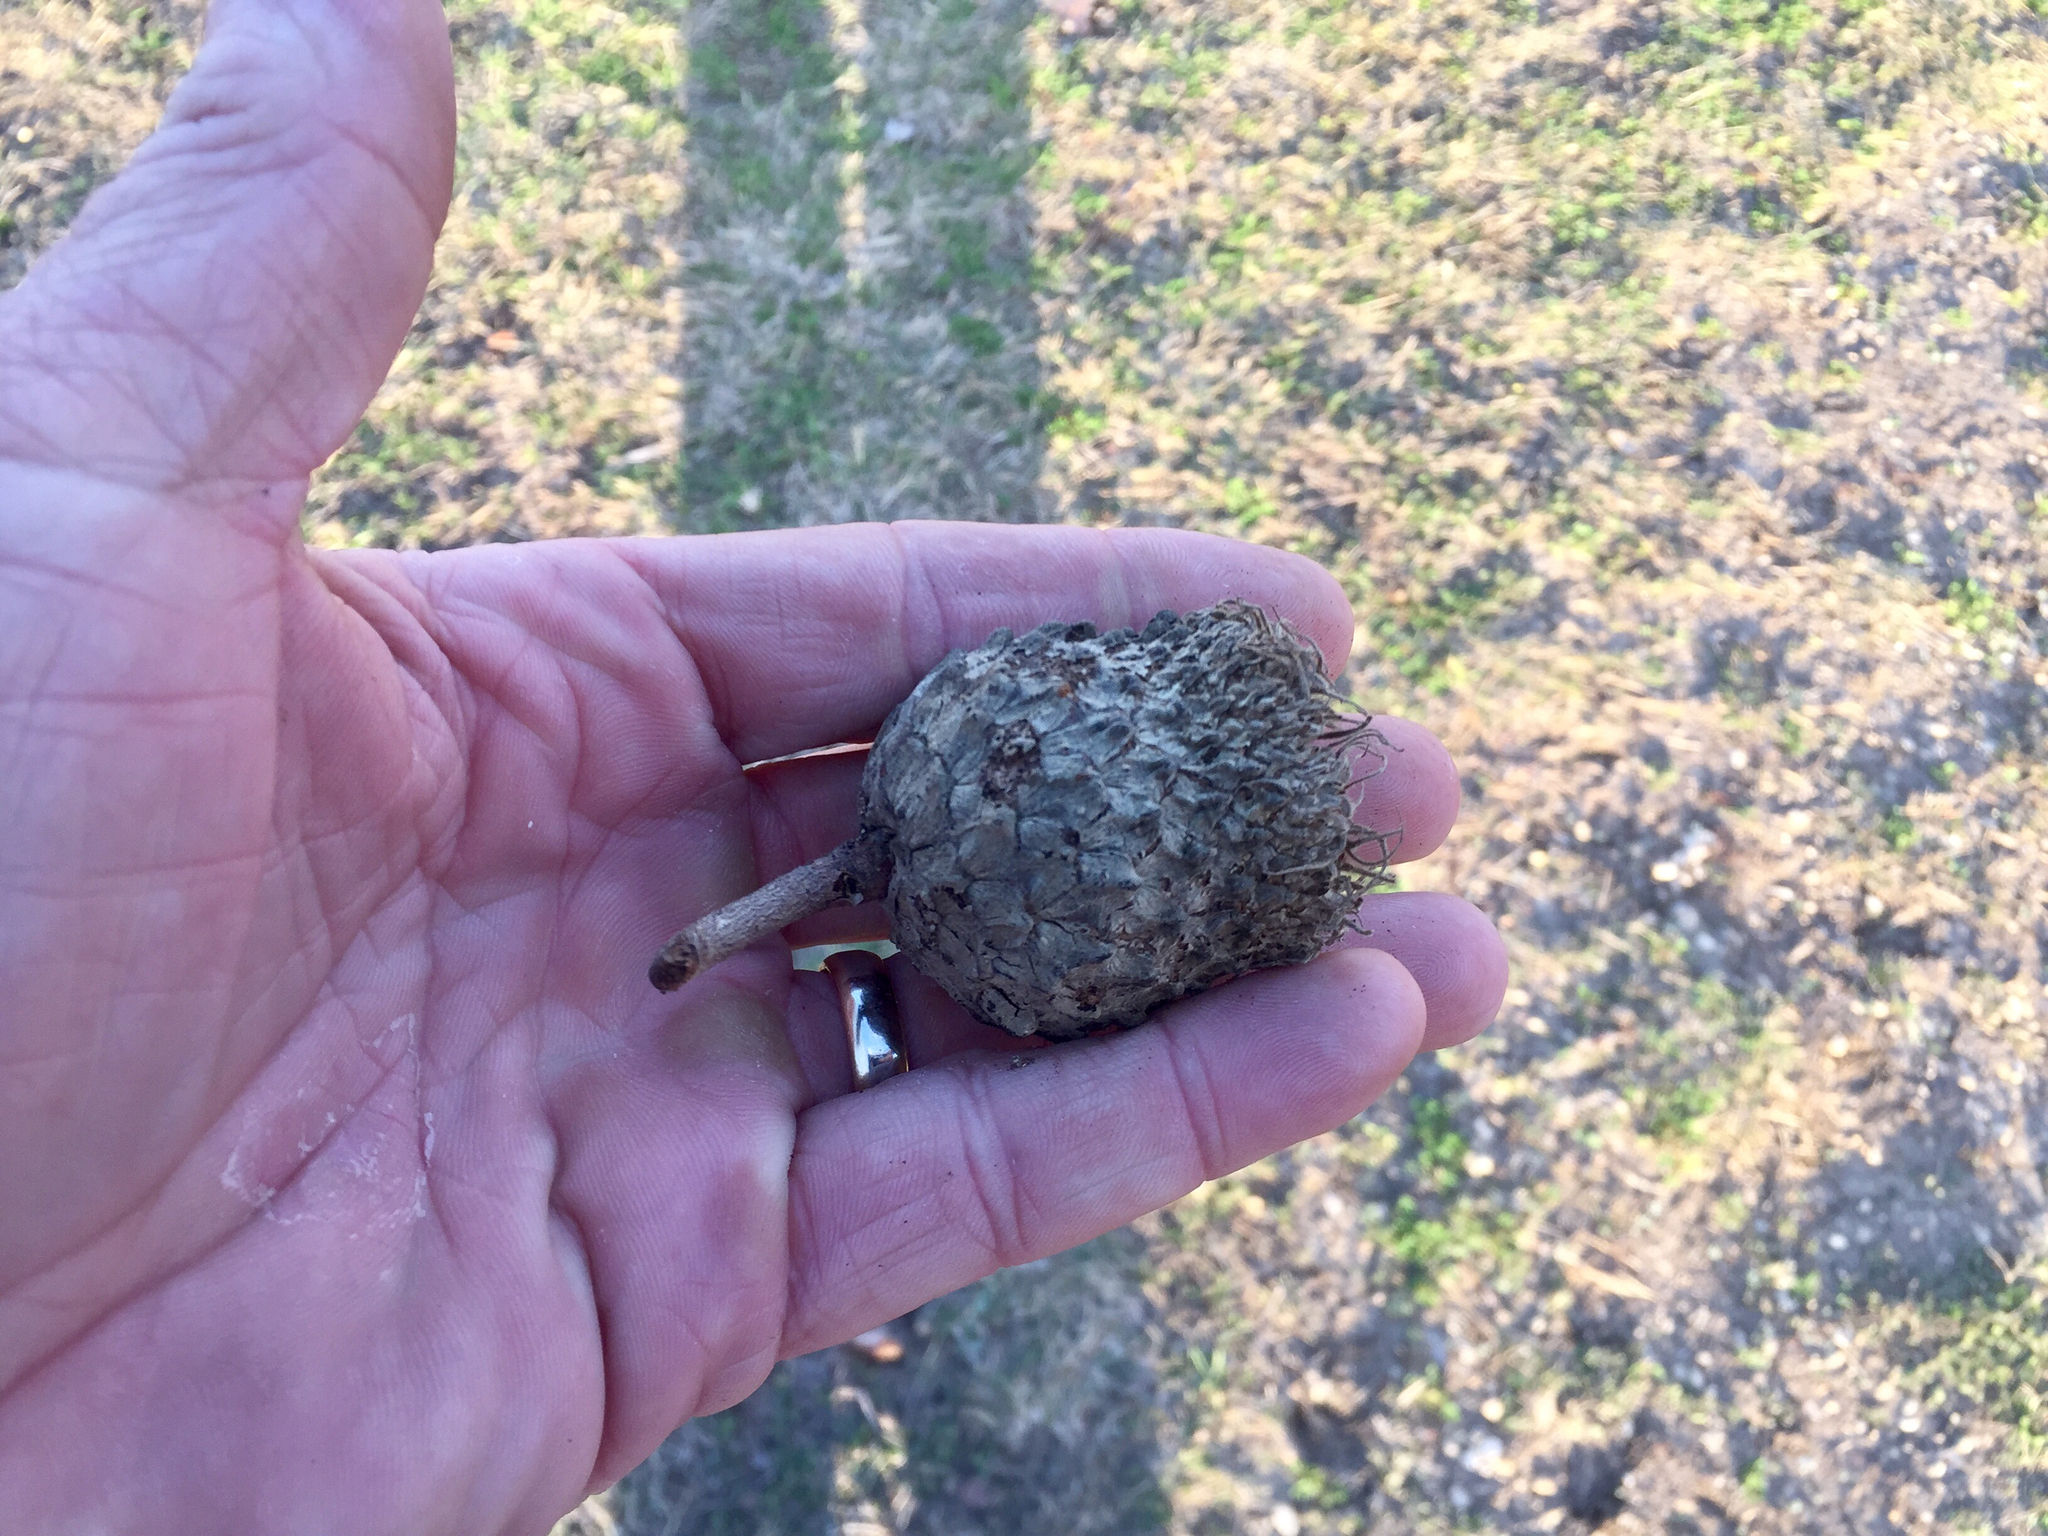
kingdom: Plantae
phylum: Tracheophyta
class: Magnoliopsida
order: Fagales
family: Fagaceae
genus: Quercus
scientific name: Quercus macrocarpa
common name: Bur oak
